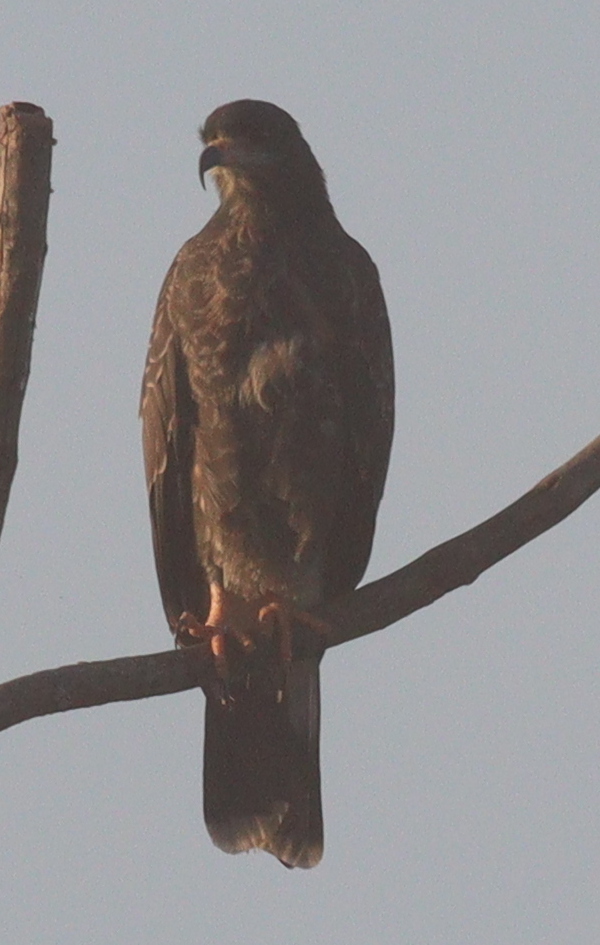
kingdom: Animalia
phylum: Chordata
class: Aves
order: Accipitriformes
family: Accipitridae
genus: Rostrhamus
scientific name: Rostrhamus sociabilis
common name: Snail kite
